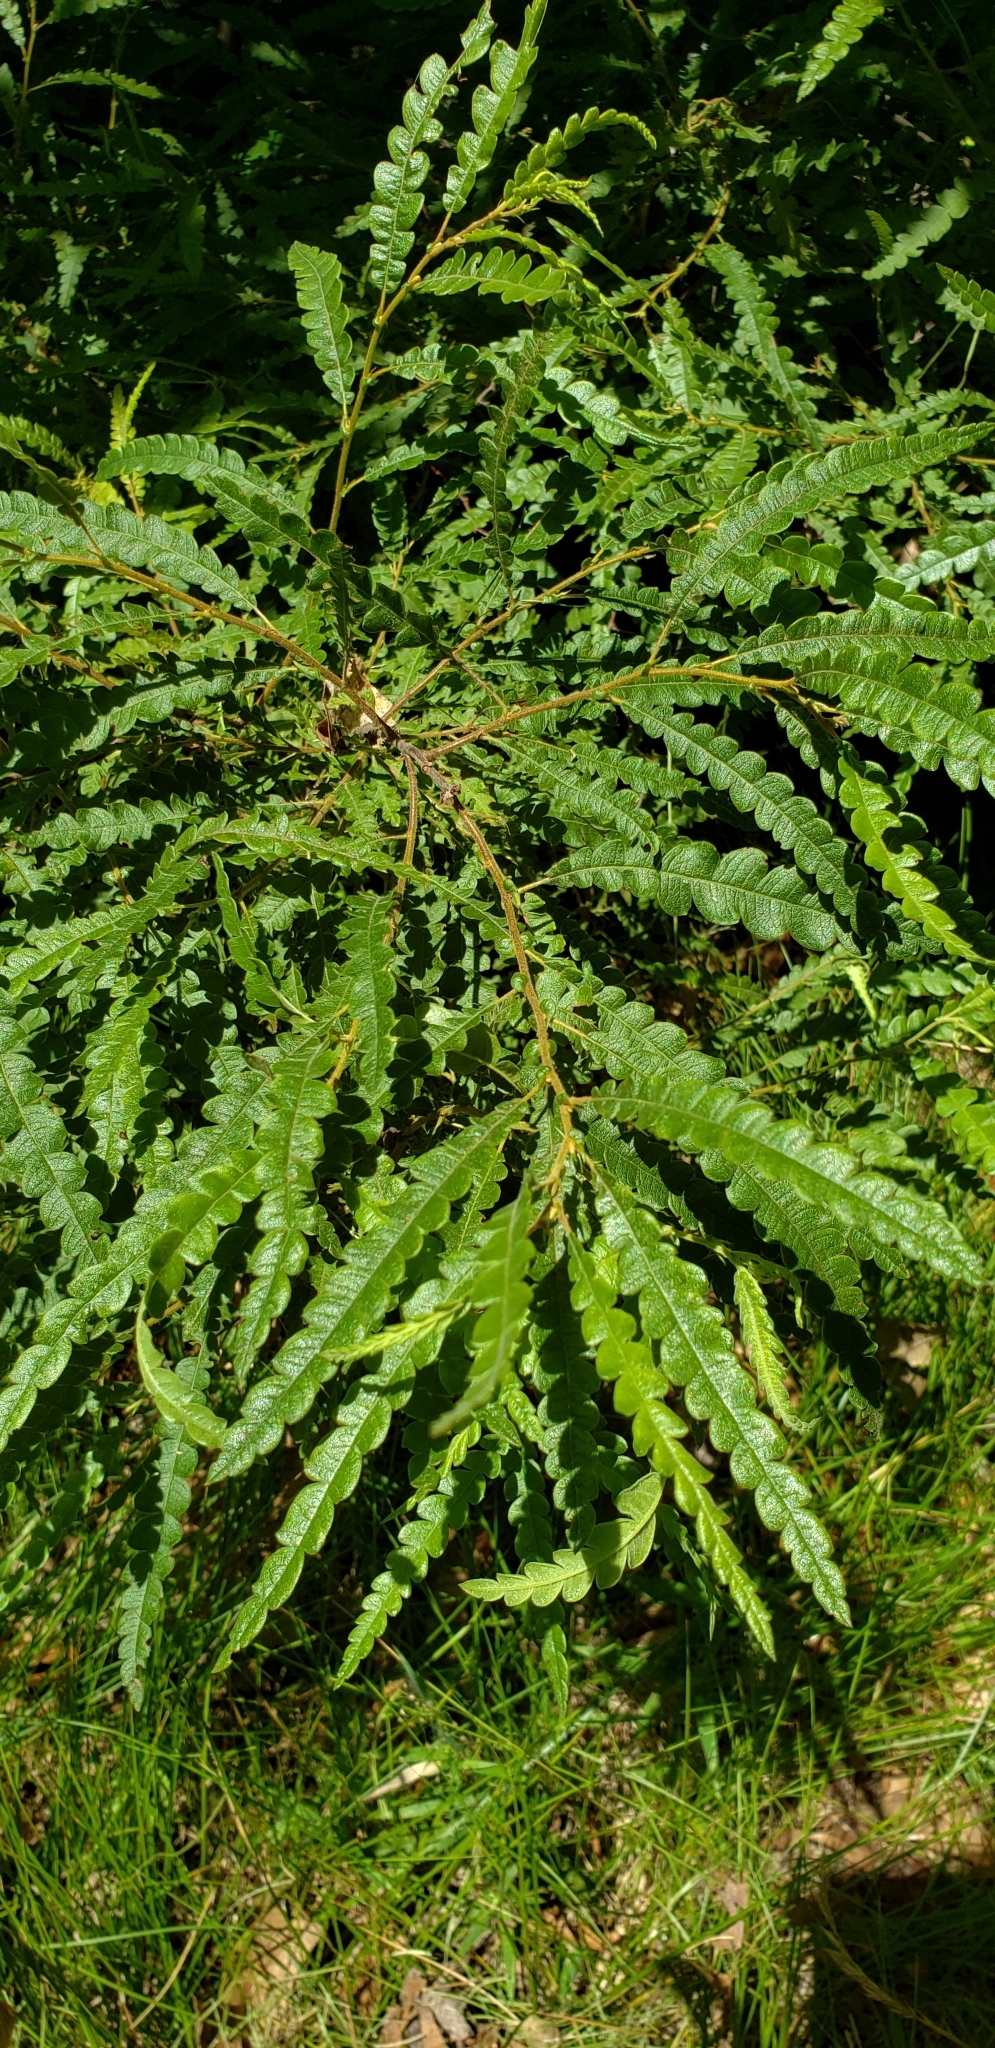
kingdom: Plantae
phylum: Tracheophyta
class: Magnoliopsida
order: Fagales
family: Myricaceae
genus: Comptonia
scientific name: Comptonia peregrina
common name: Sweet-fern
